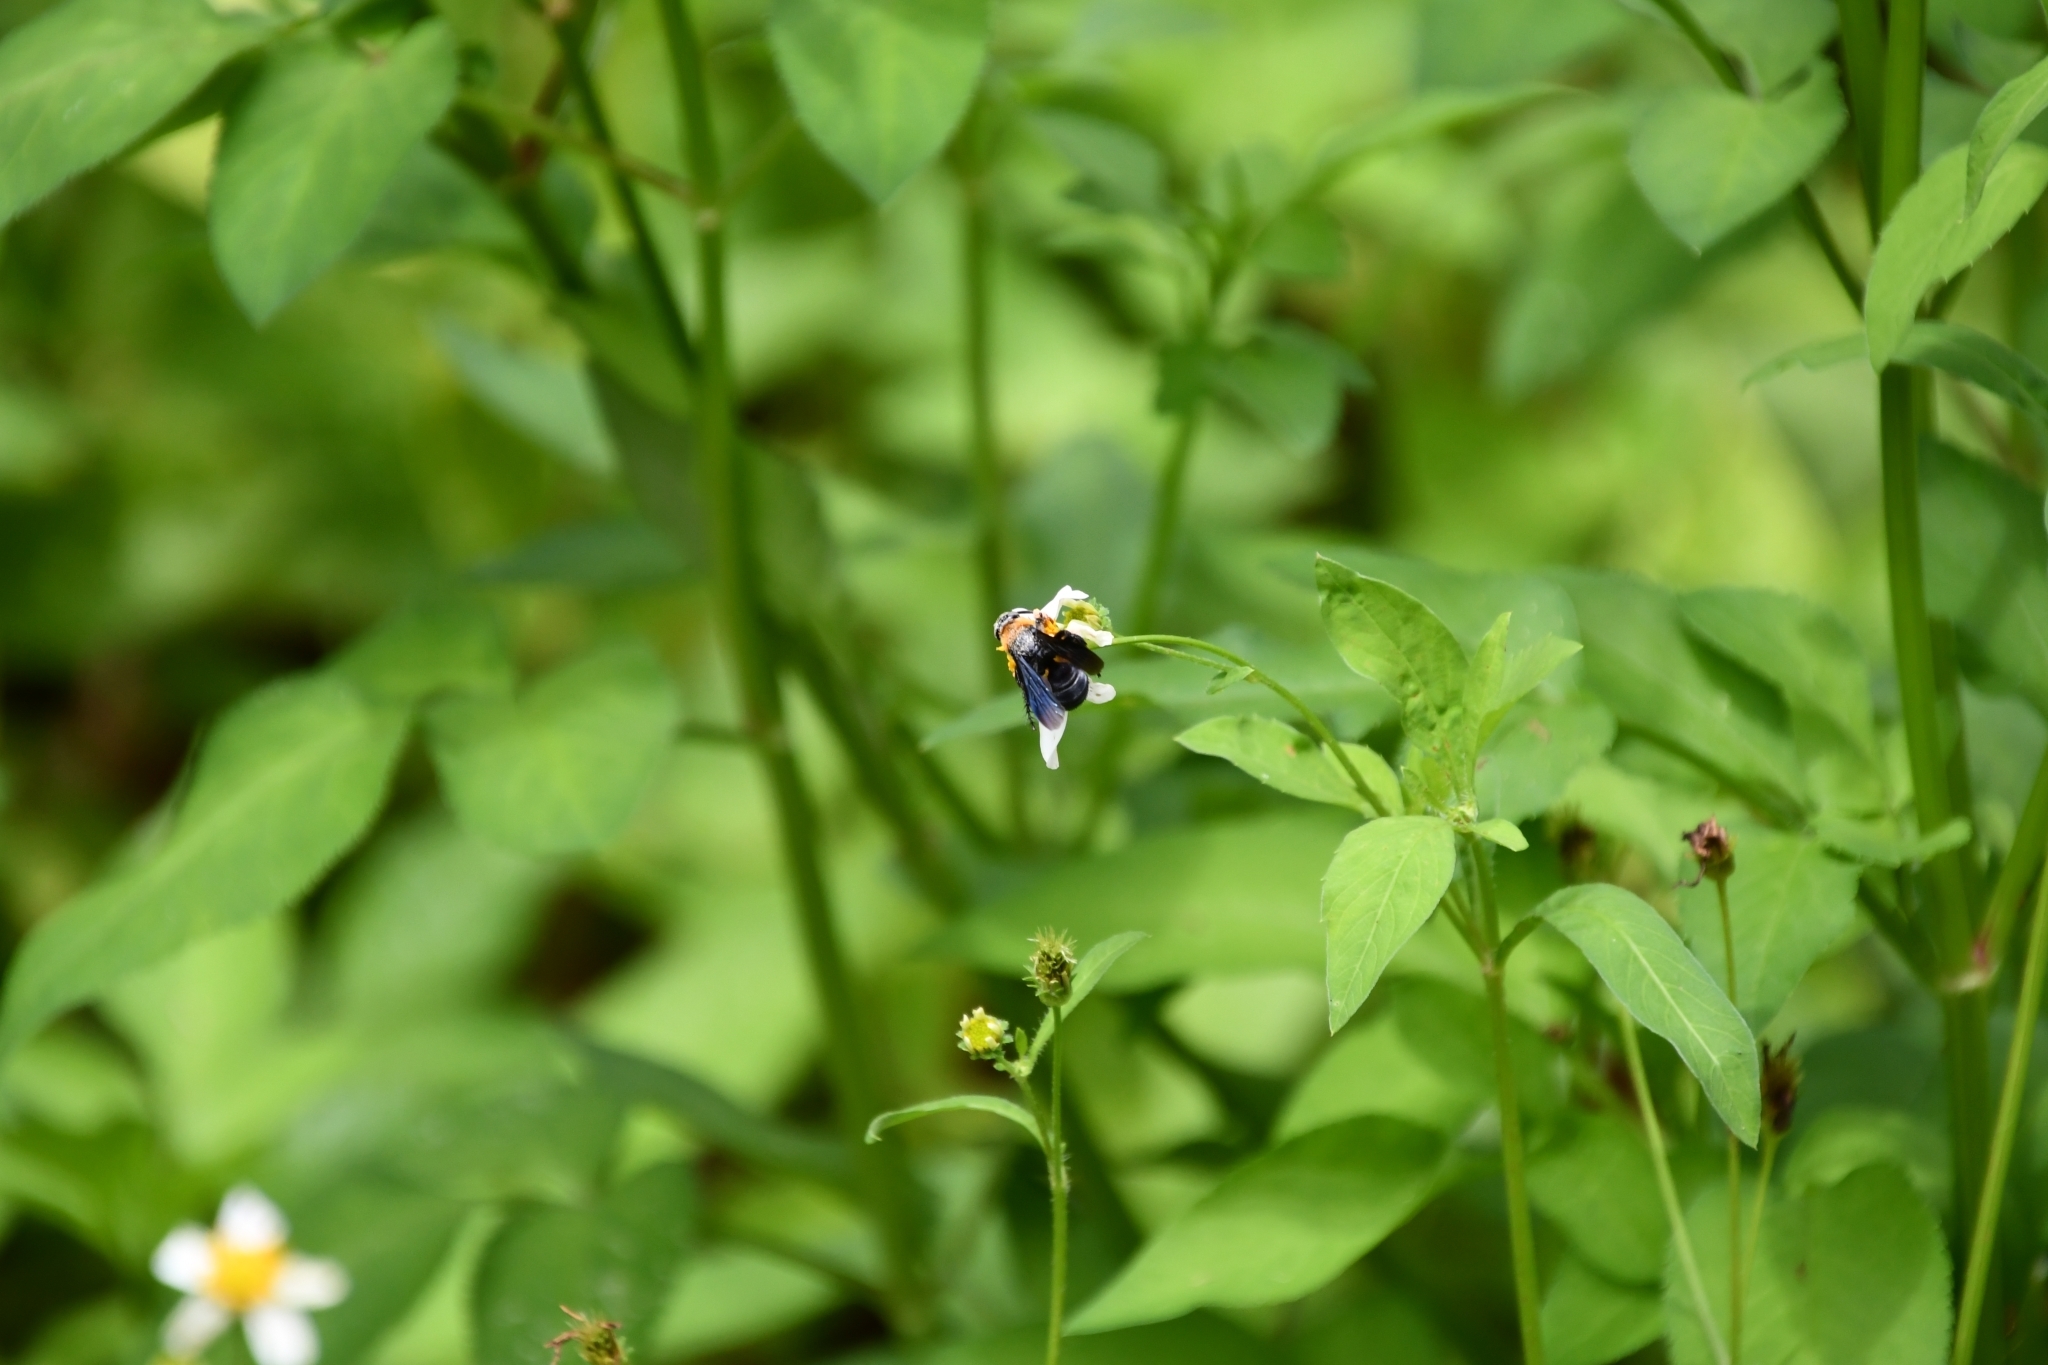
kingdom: Animalia
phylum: Arthropoda
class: Insecta
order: Hymenoptera
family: Scoliidae
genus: Campsomeriella
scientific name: Campsomeriella collaris
